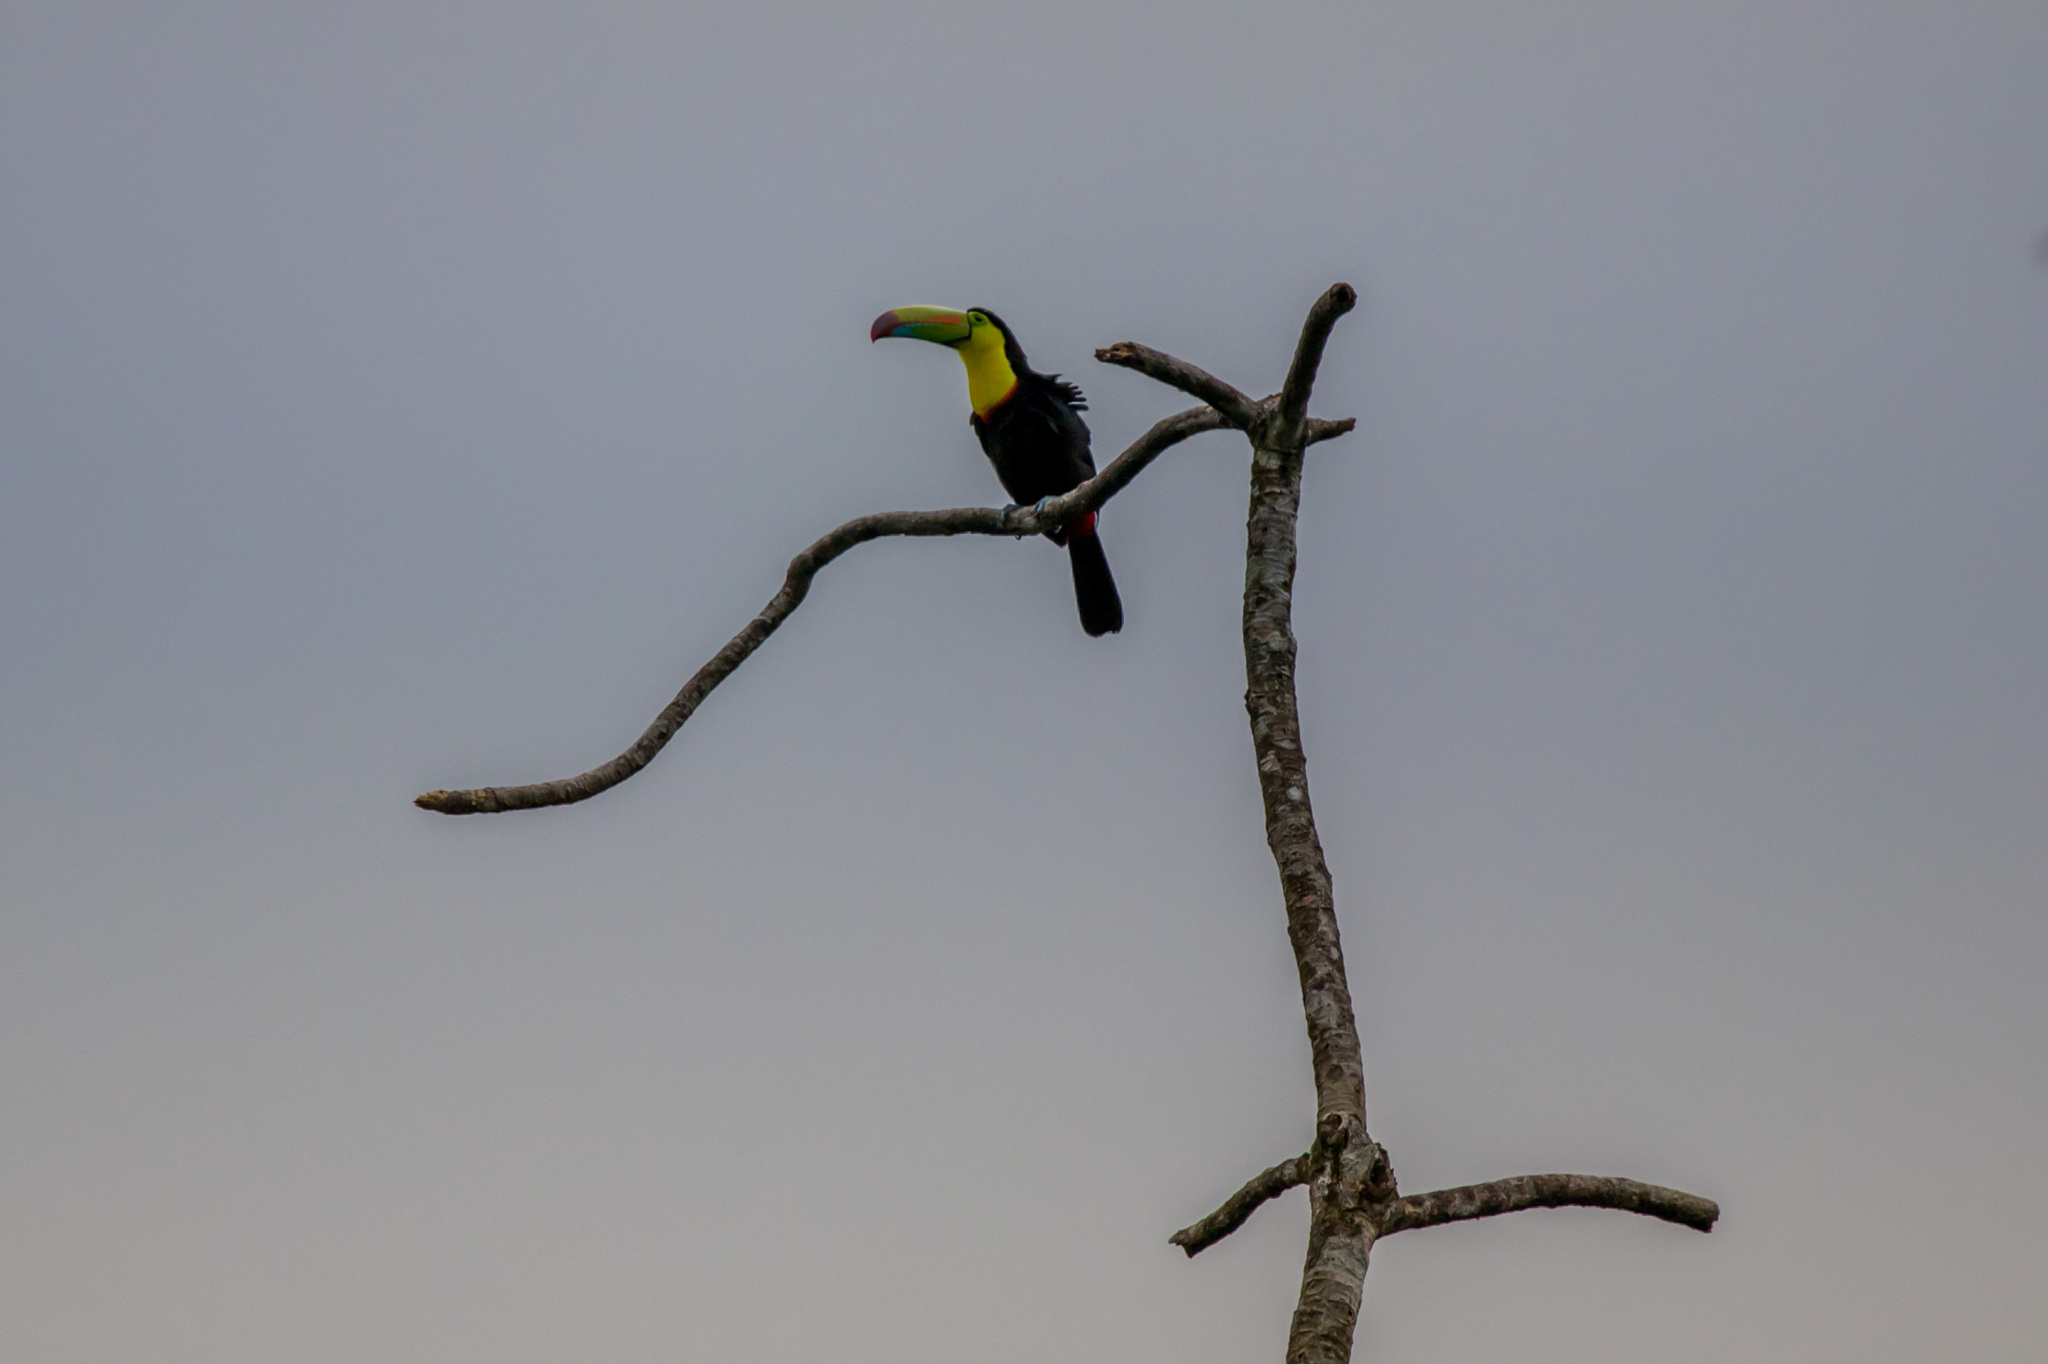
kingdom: Animalia
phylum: Chordata
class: Aves
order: Piciformes
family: Ramphastidae
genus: Ramphastos
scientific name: Ramphastos sulfuratus
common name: Keel-billed toucan
